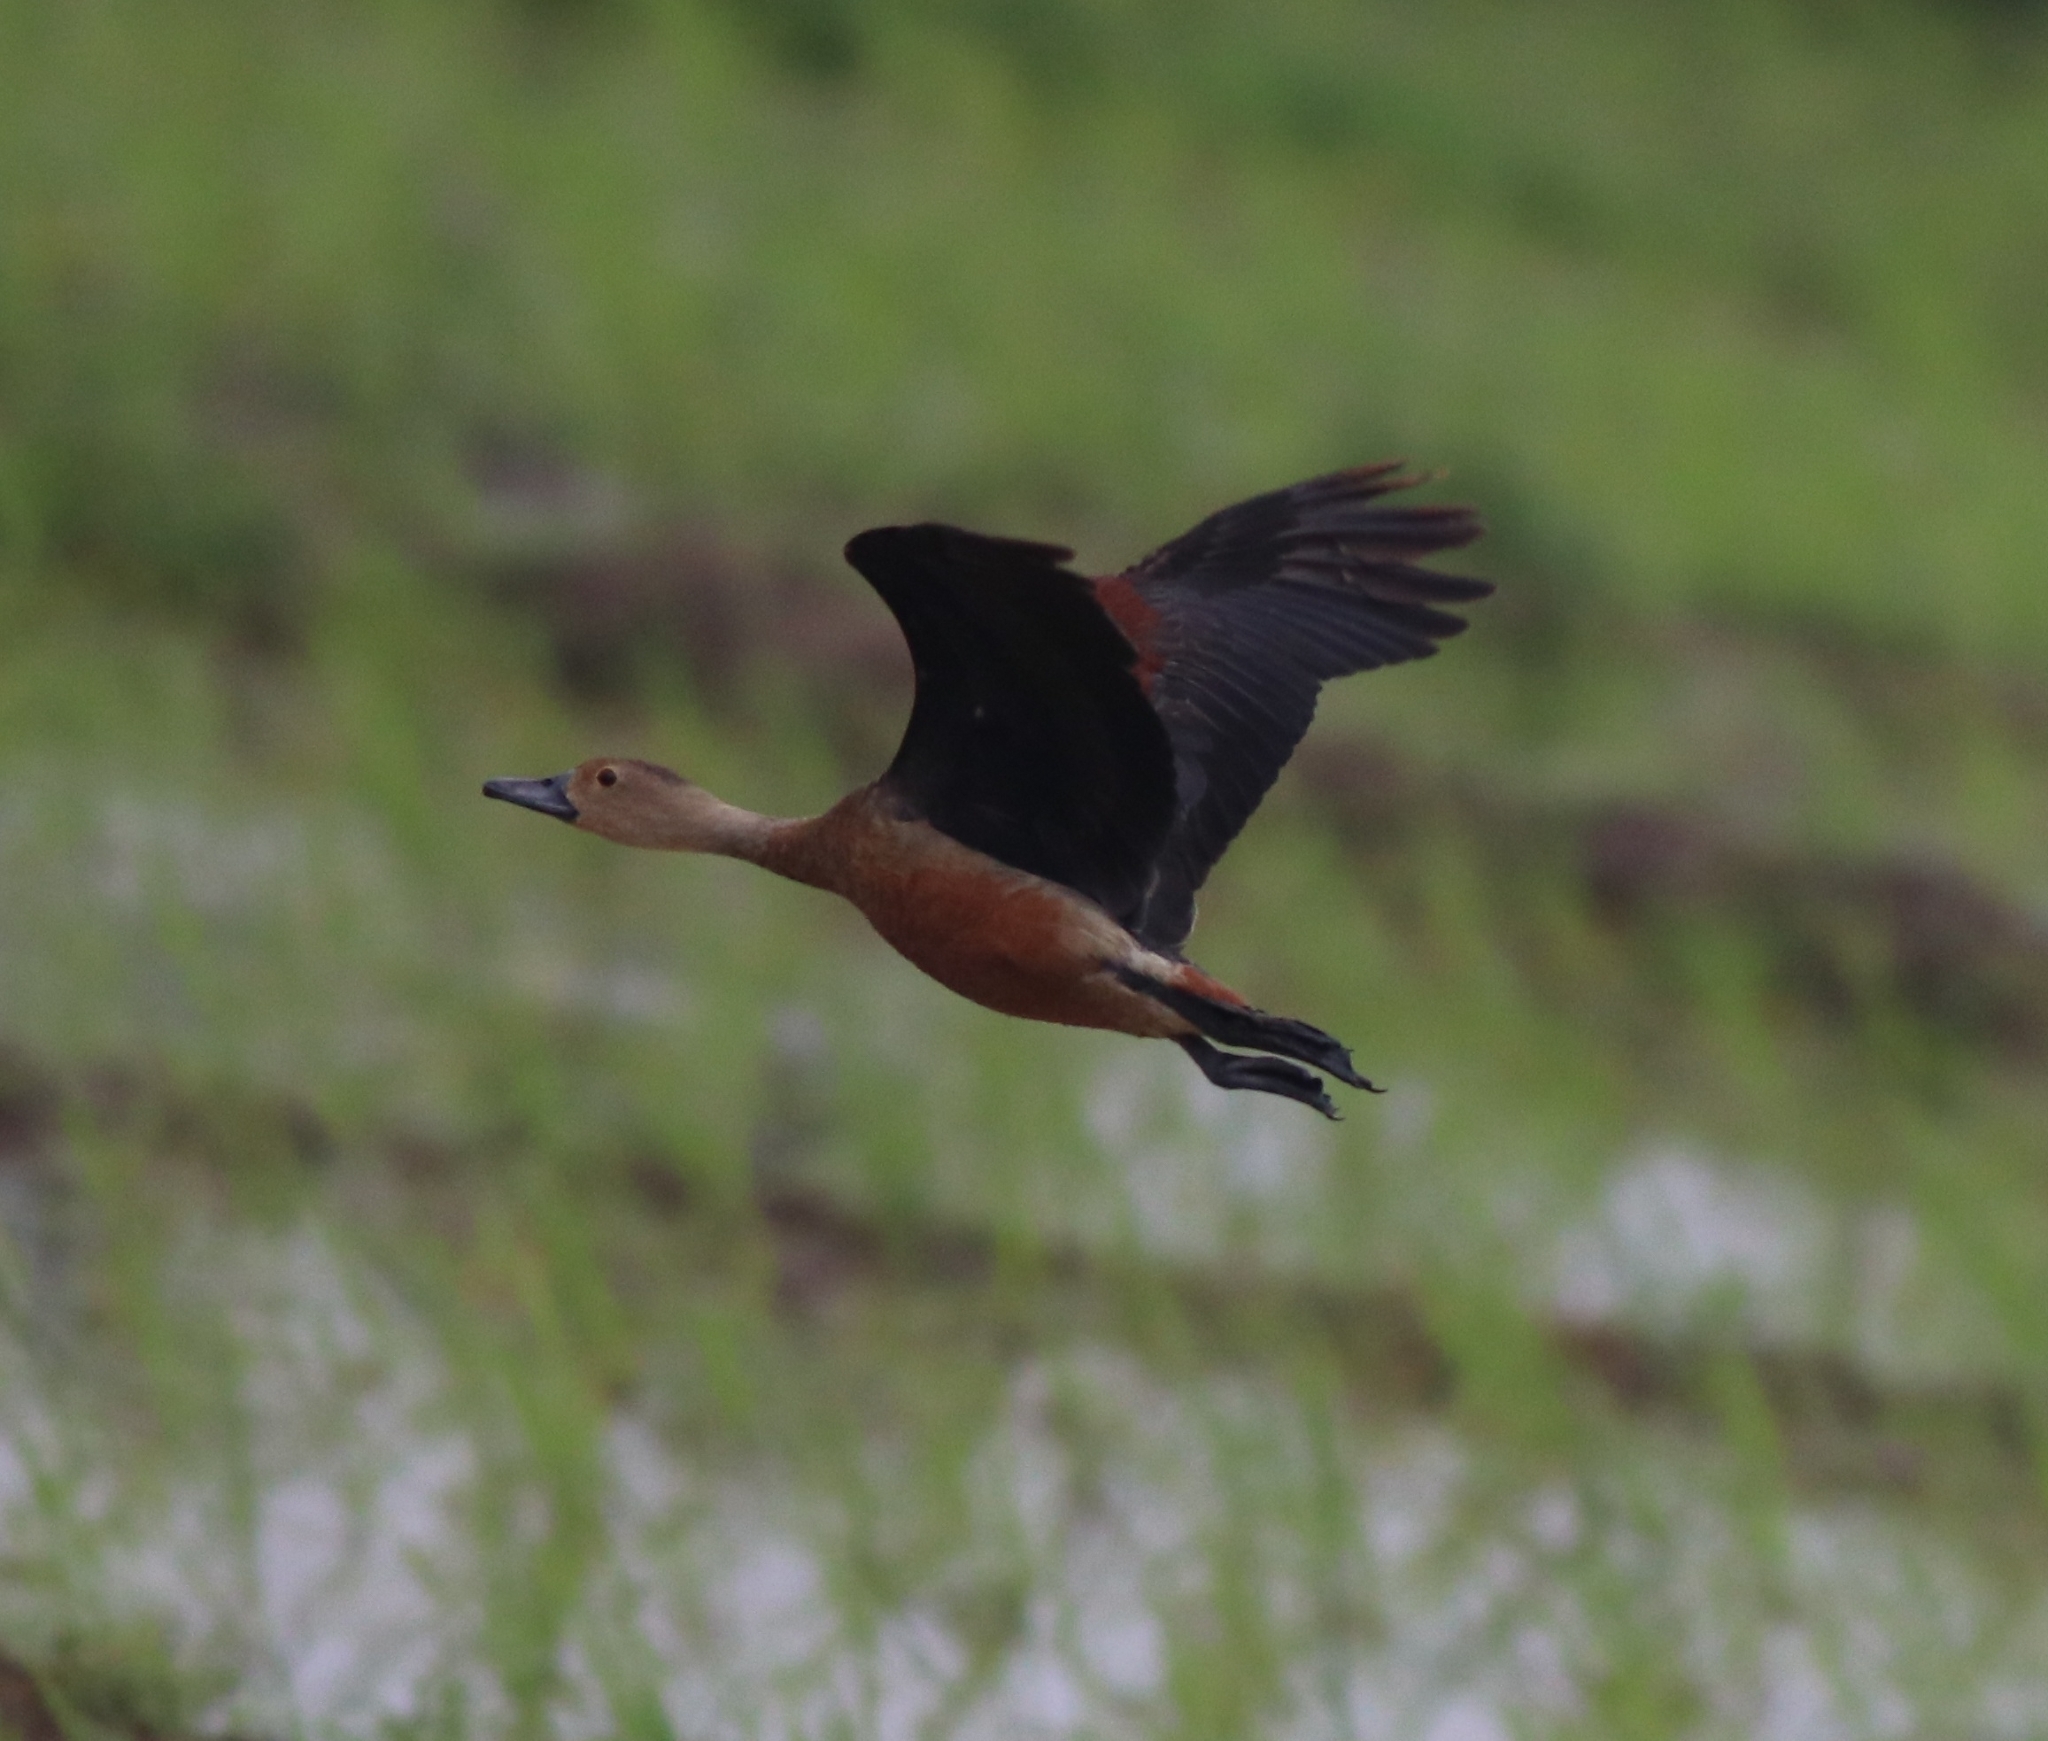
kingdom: Animalia
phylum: Chordata
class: Aves
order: Anseriformes
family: Anatidae
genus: Dendrocygna
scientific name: Dendrocygna javanica
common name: Lesser whistling-duck
